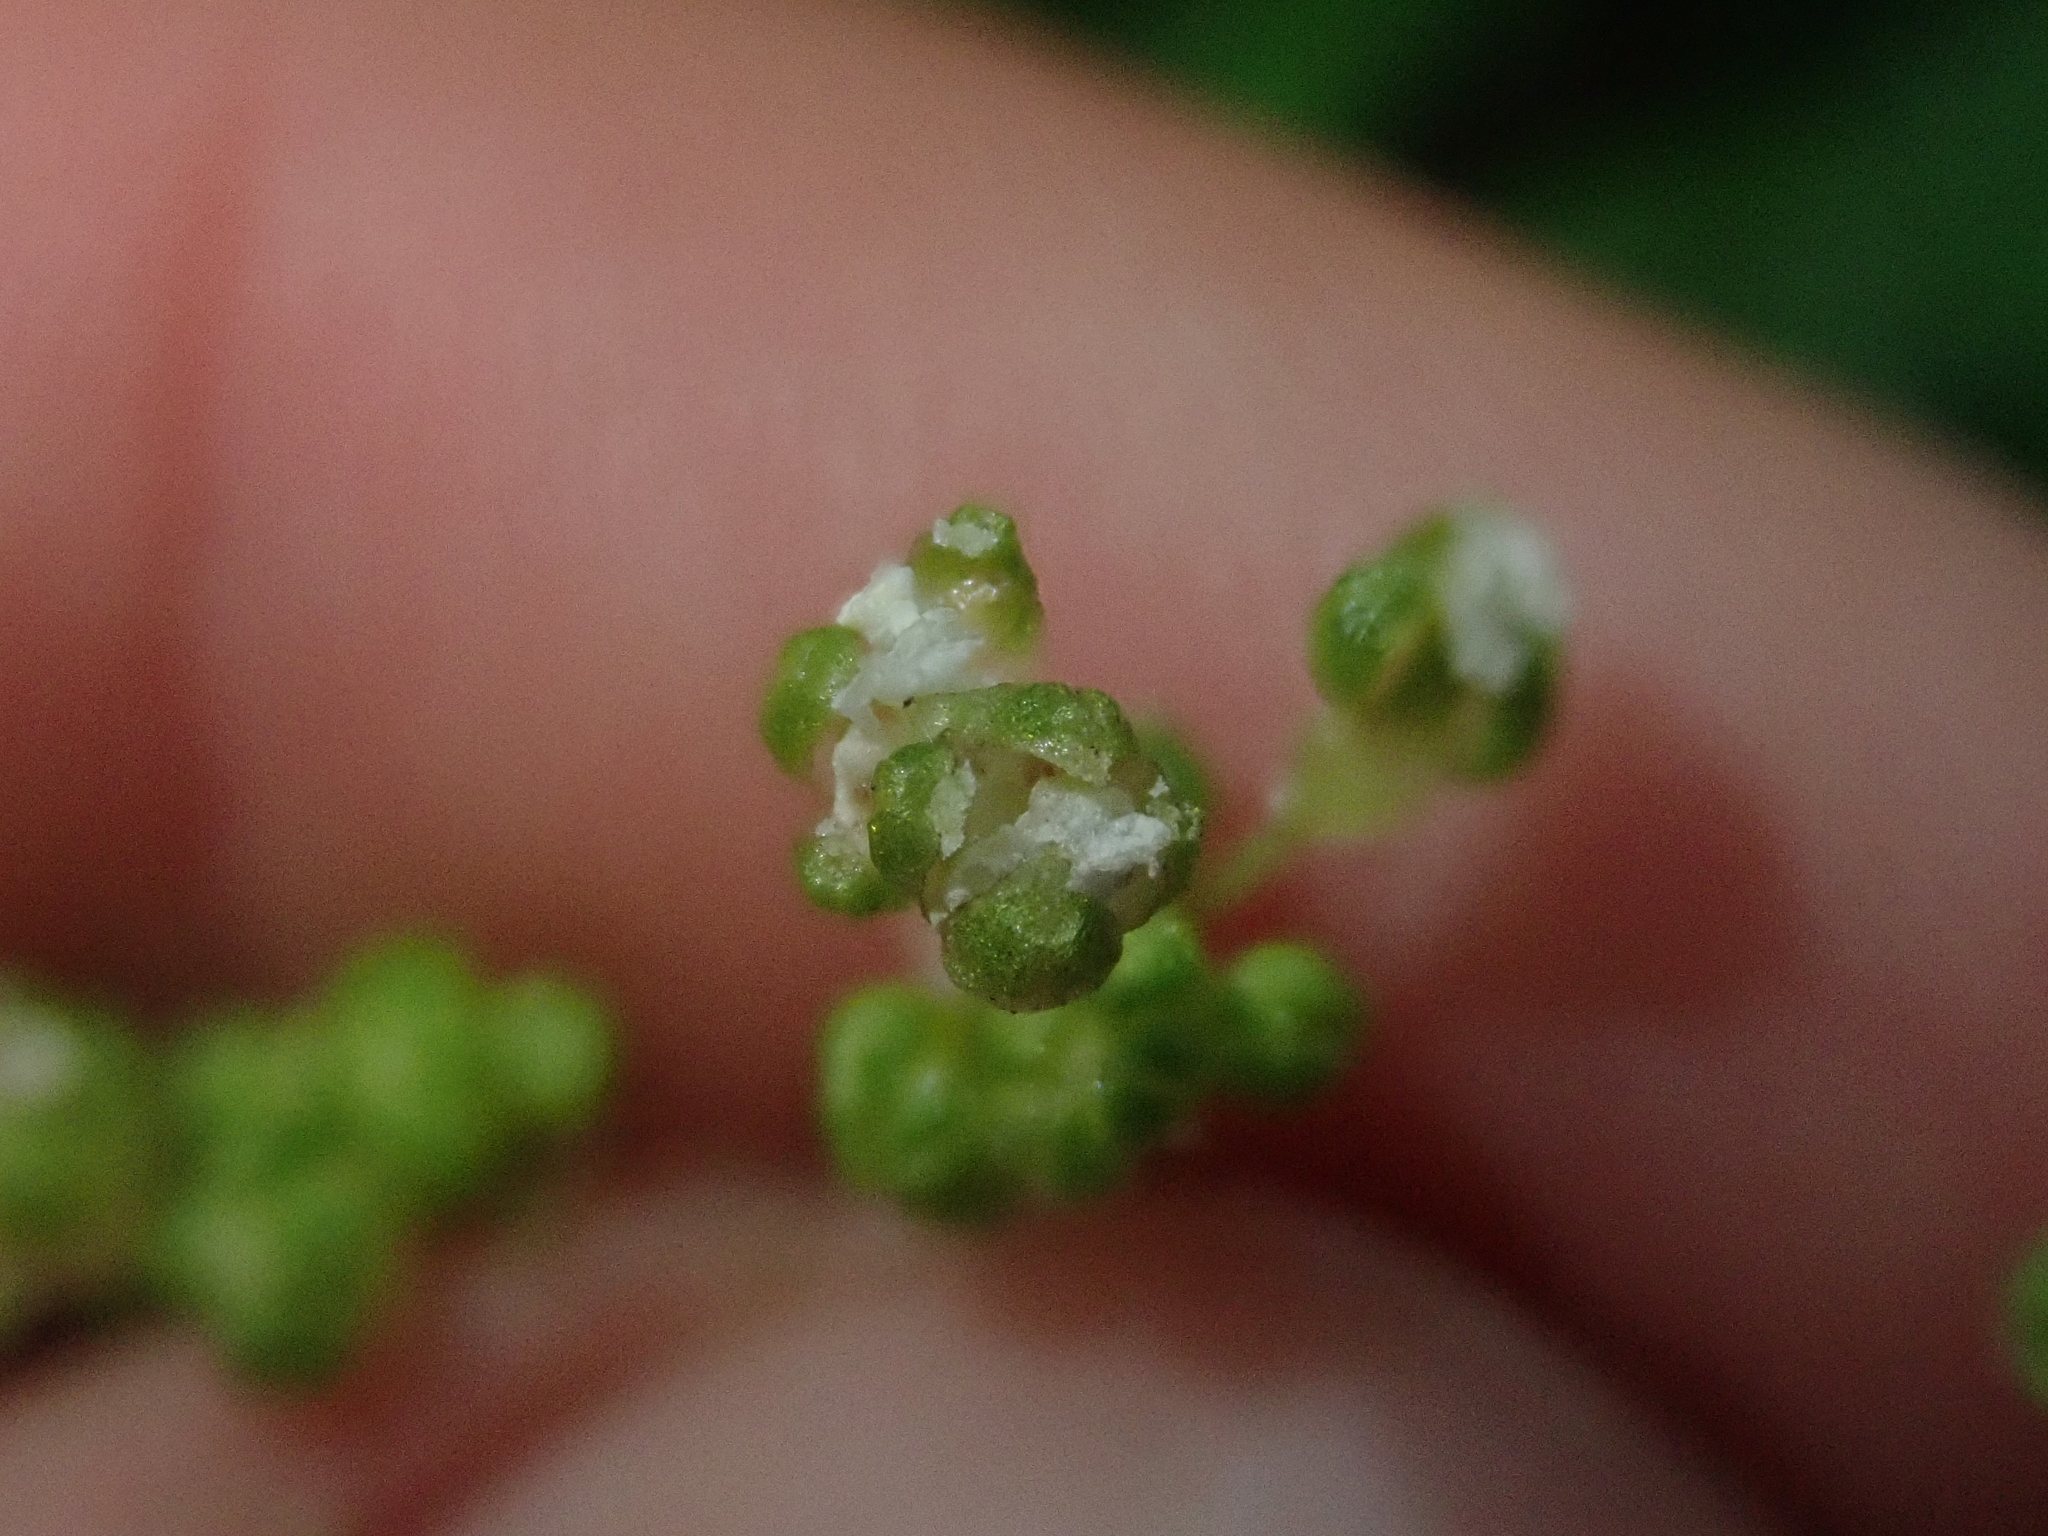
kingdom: Plantae
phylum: Tracheophyta
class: Magnoliopsida
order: Rosales
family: Urticaceae
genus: Pilea
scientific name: Pilea elliptica
